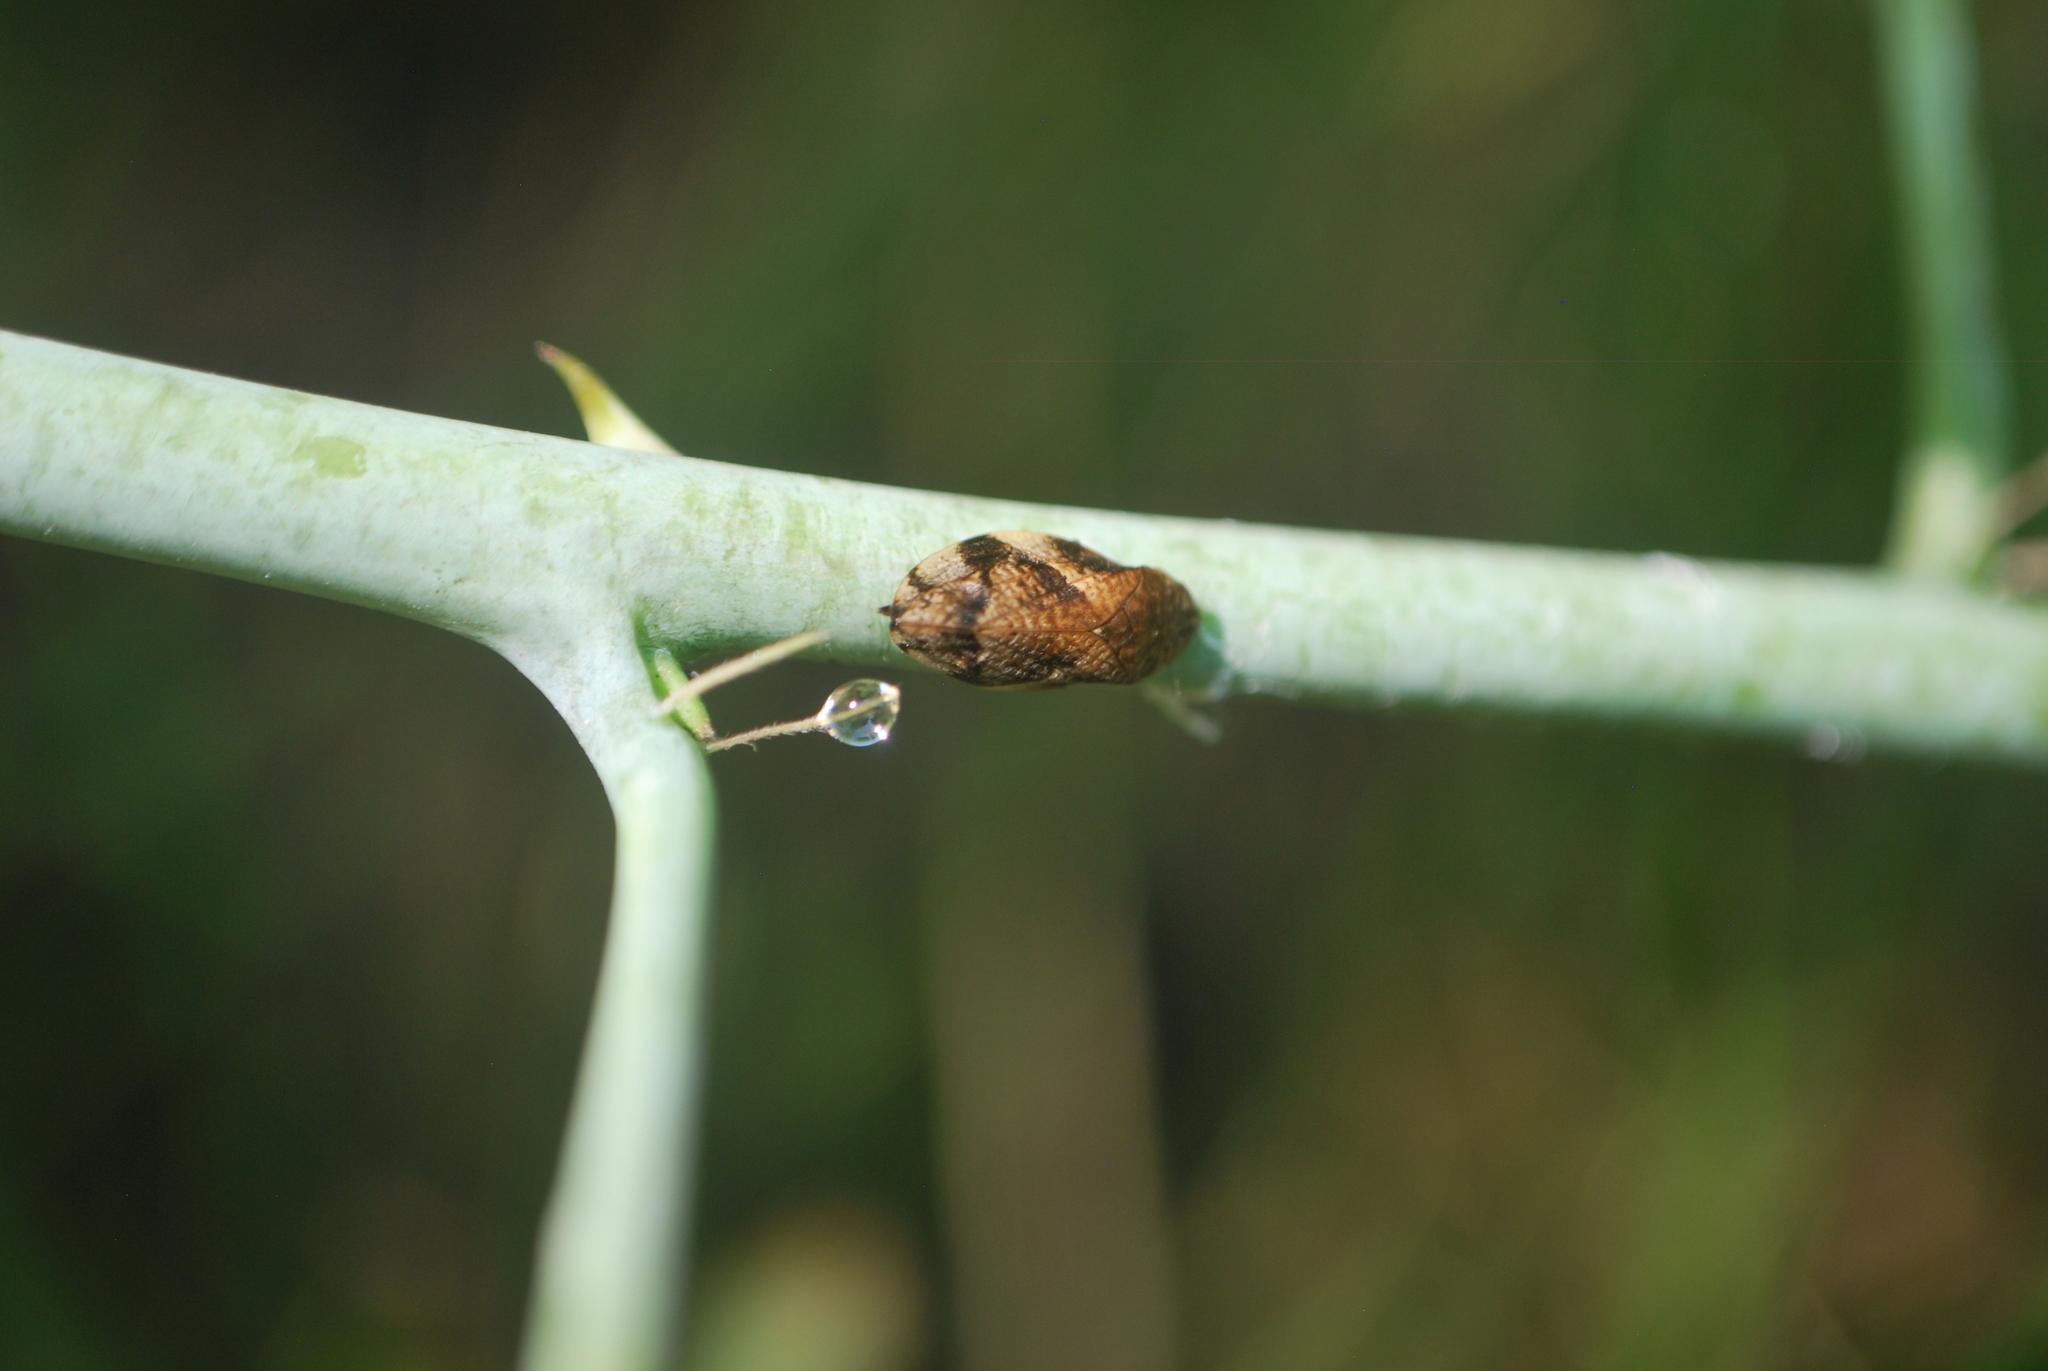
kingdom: Animalia
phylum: Arthropoda
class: Insecta
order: Hemiptera
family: Aphrophoridae
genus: Lepyronia
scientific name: Lepyronia quadrangularis
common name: Diamond-backed spittlebug
